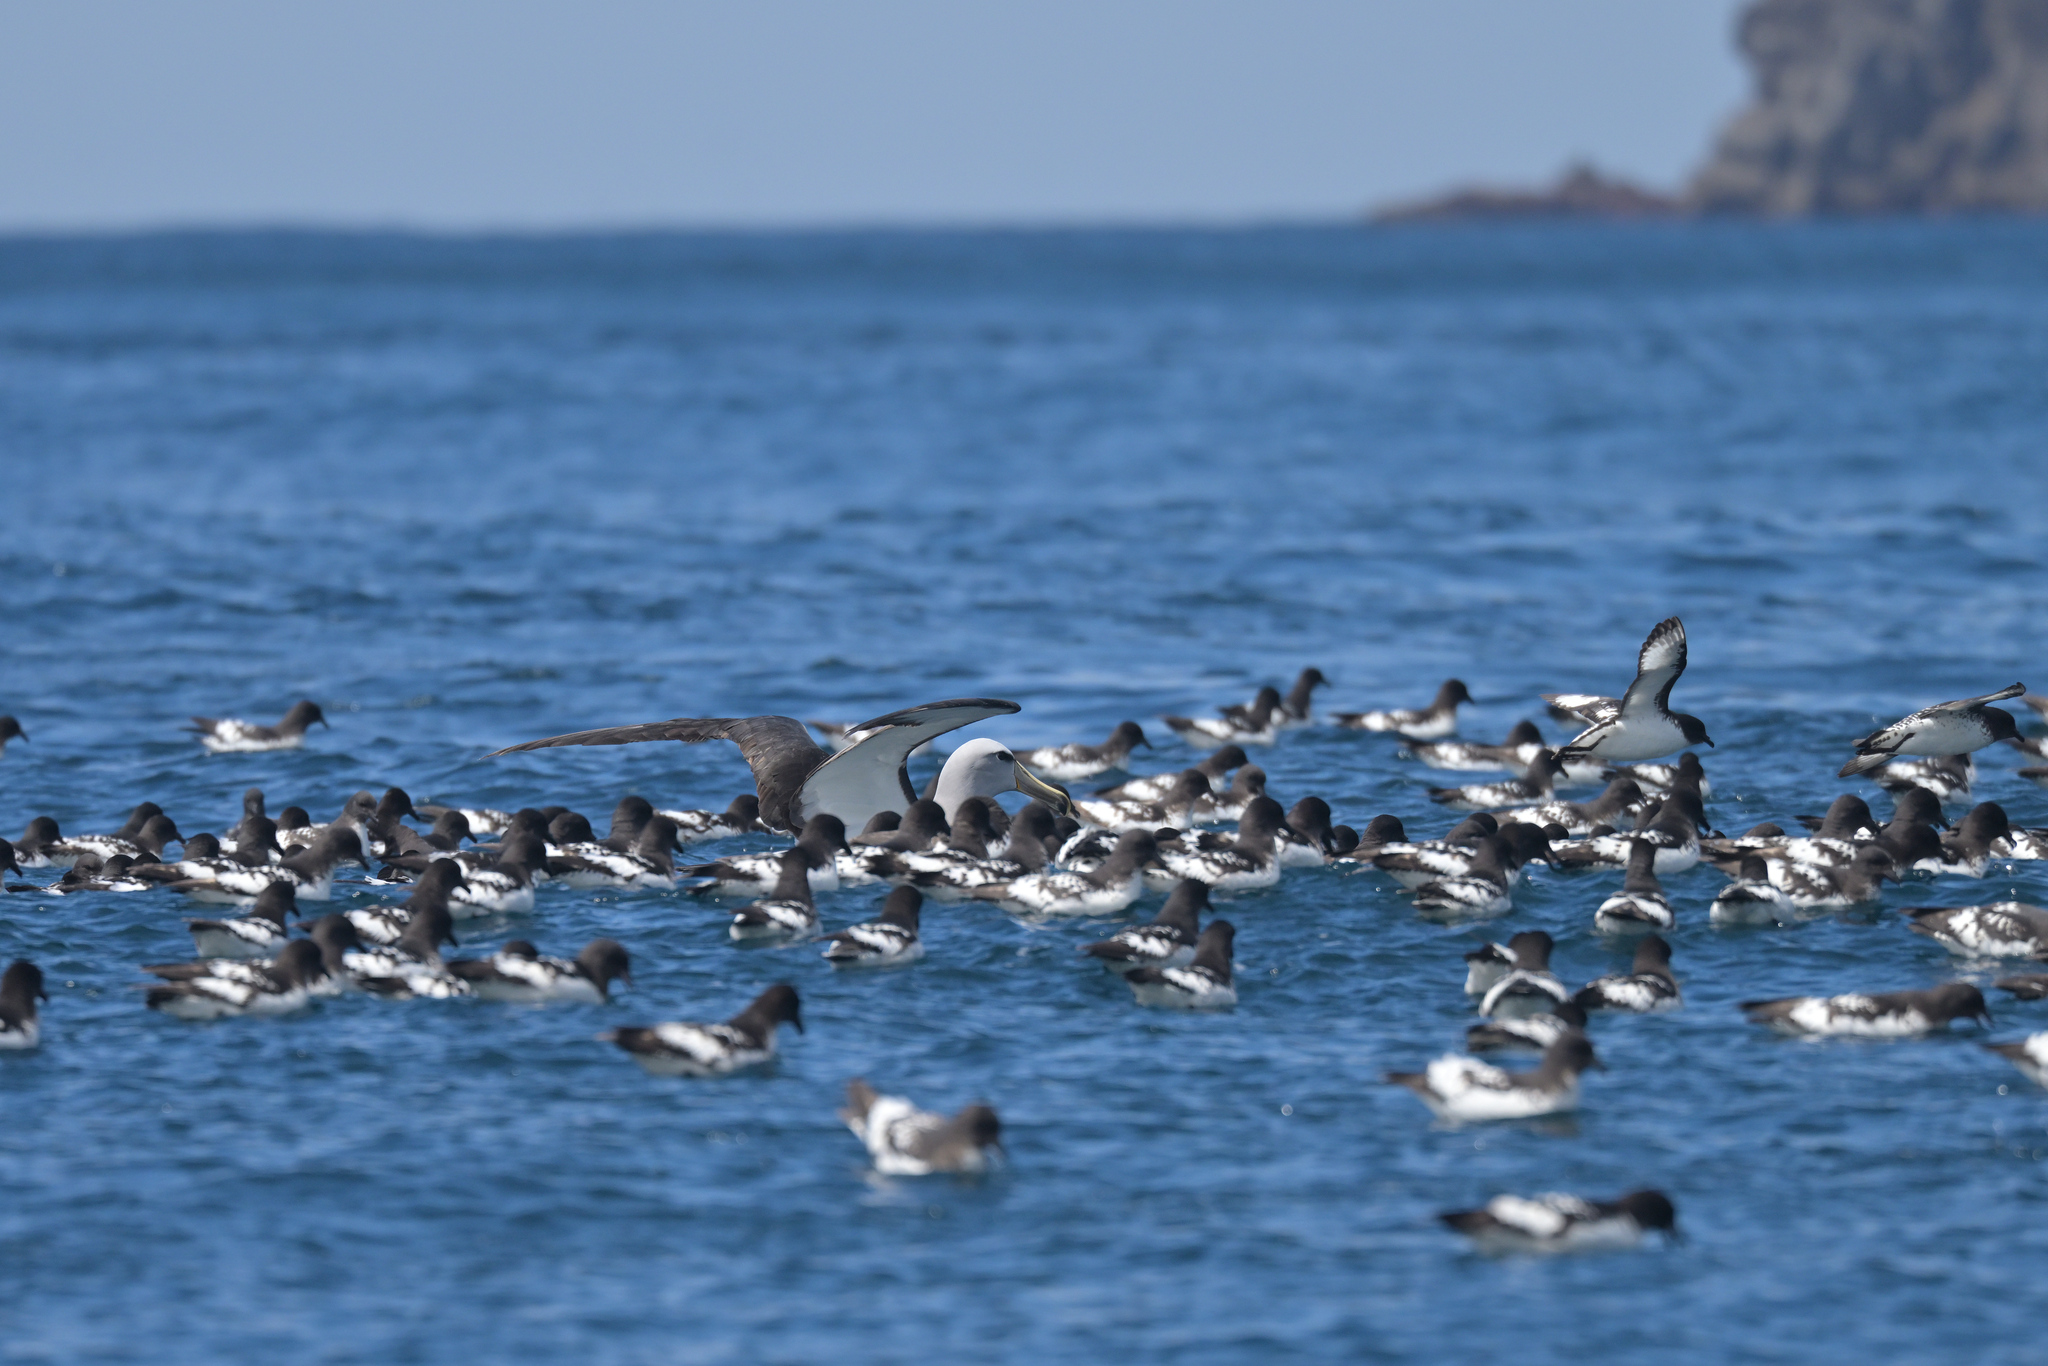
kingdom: Animalia
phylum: Chordata
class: Aves
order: Procellariiformes
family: Diomedeidae
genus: Thalassarche
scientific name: Thalassarche salvini
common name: Salvin's albatross
